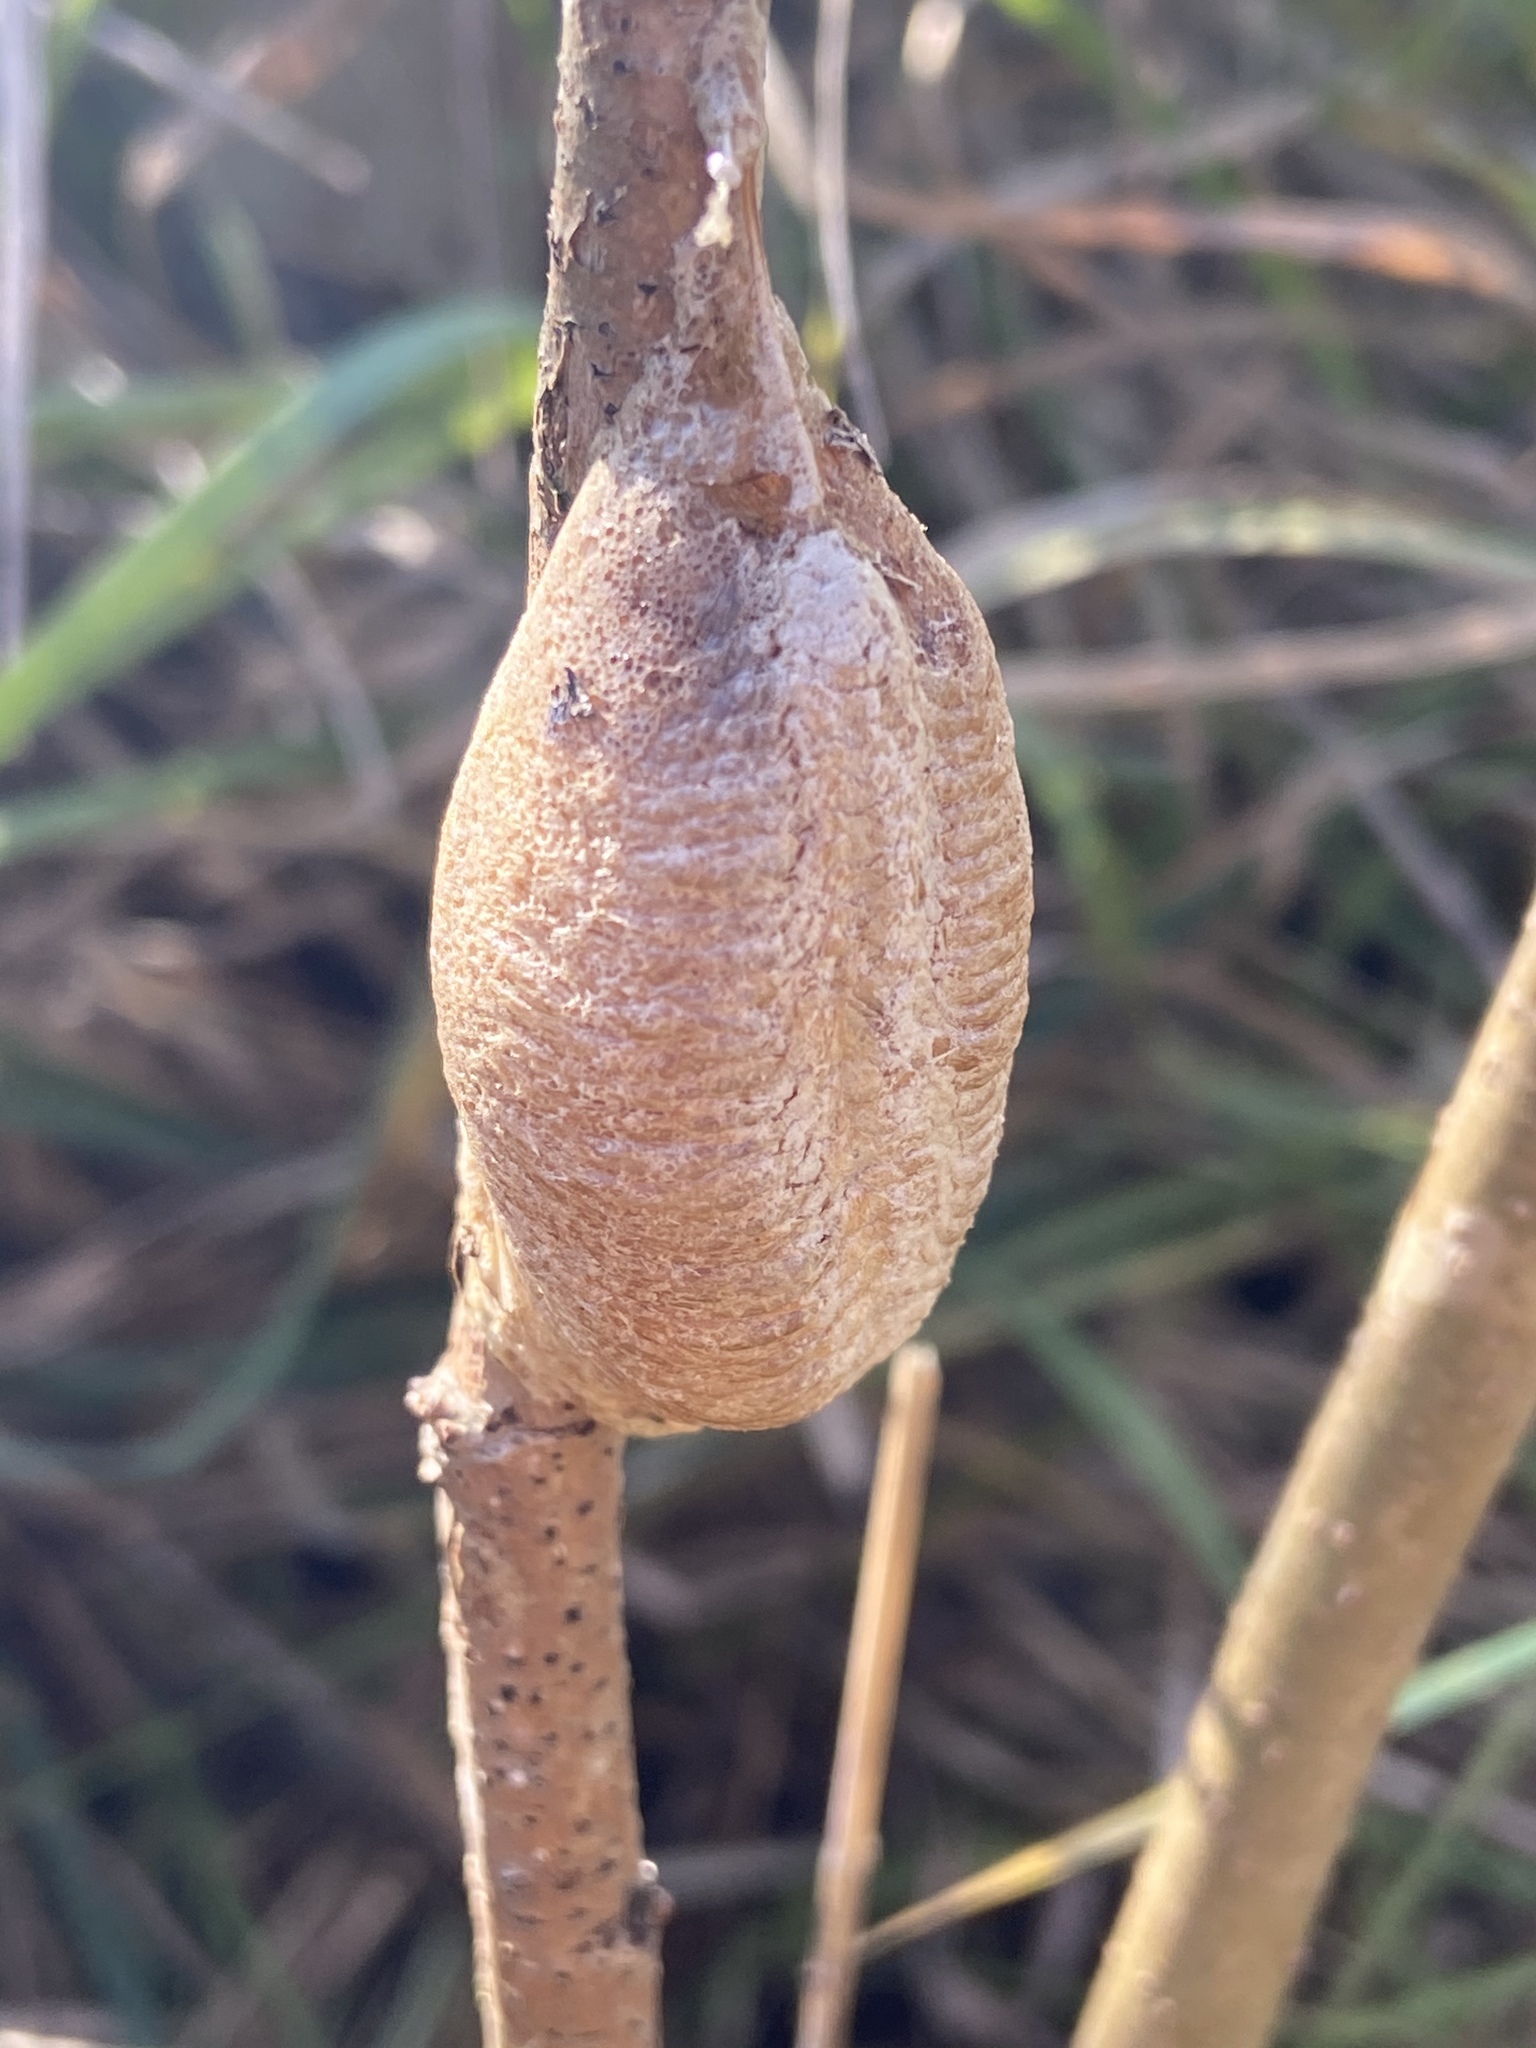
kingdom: Animalia
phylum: Arthropoda
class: Insecta
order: Mantodea
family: Mantidae
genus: Mantis
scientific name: Mantis religiosa
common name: Praying mantis
